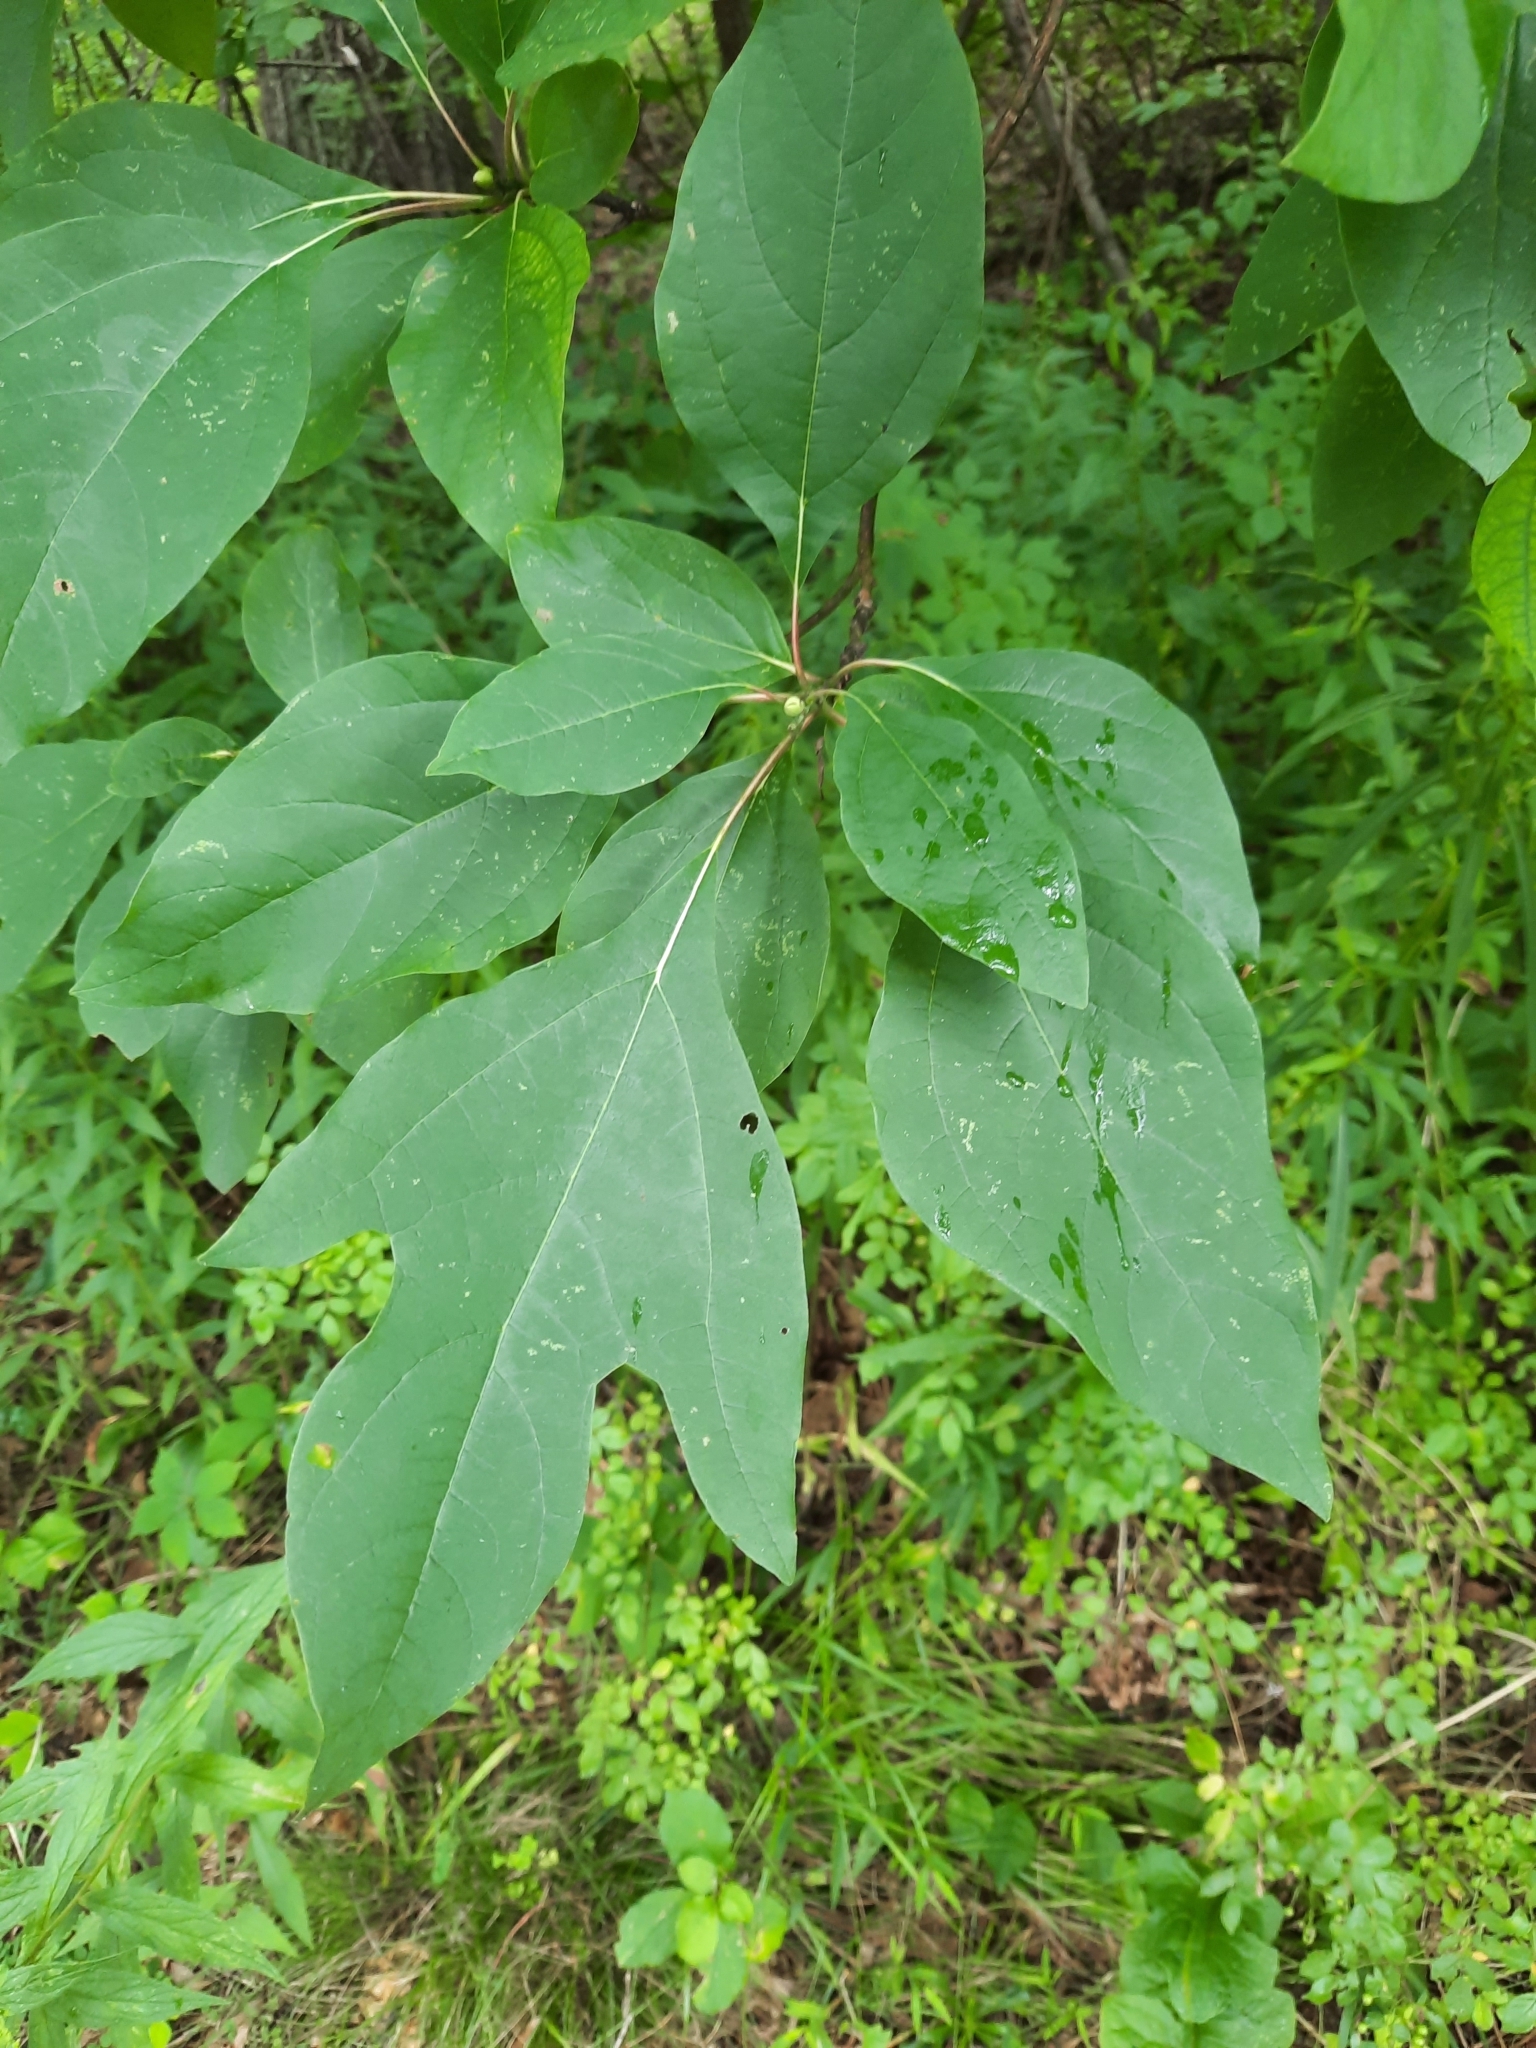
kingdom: Plantae
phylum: Tracheophyta
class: Magnoliopsida
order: Laurales
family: Lauraceae
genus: Sassafras
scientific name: Sassafras albidum
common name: Sassafras
